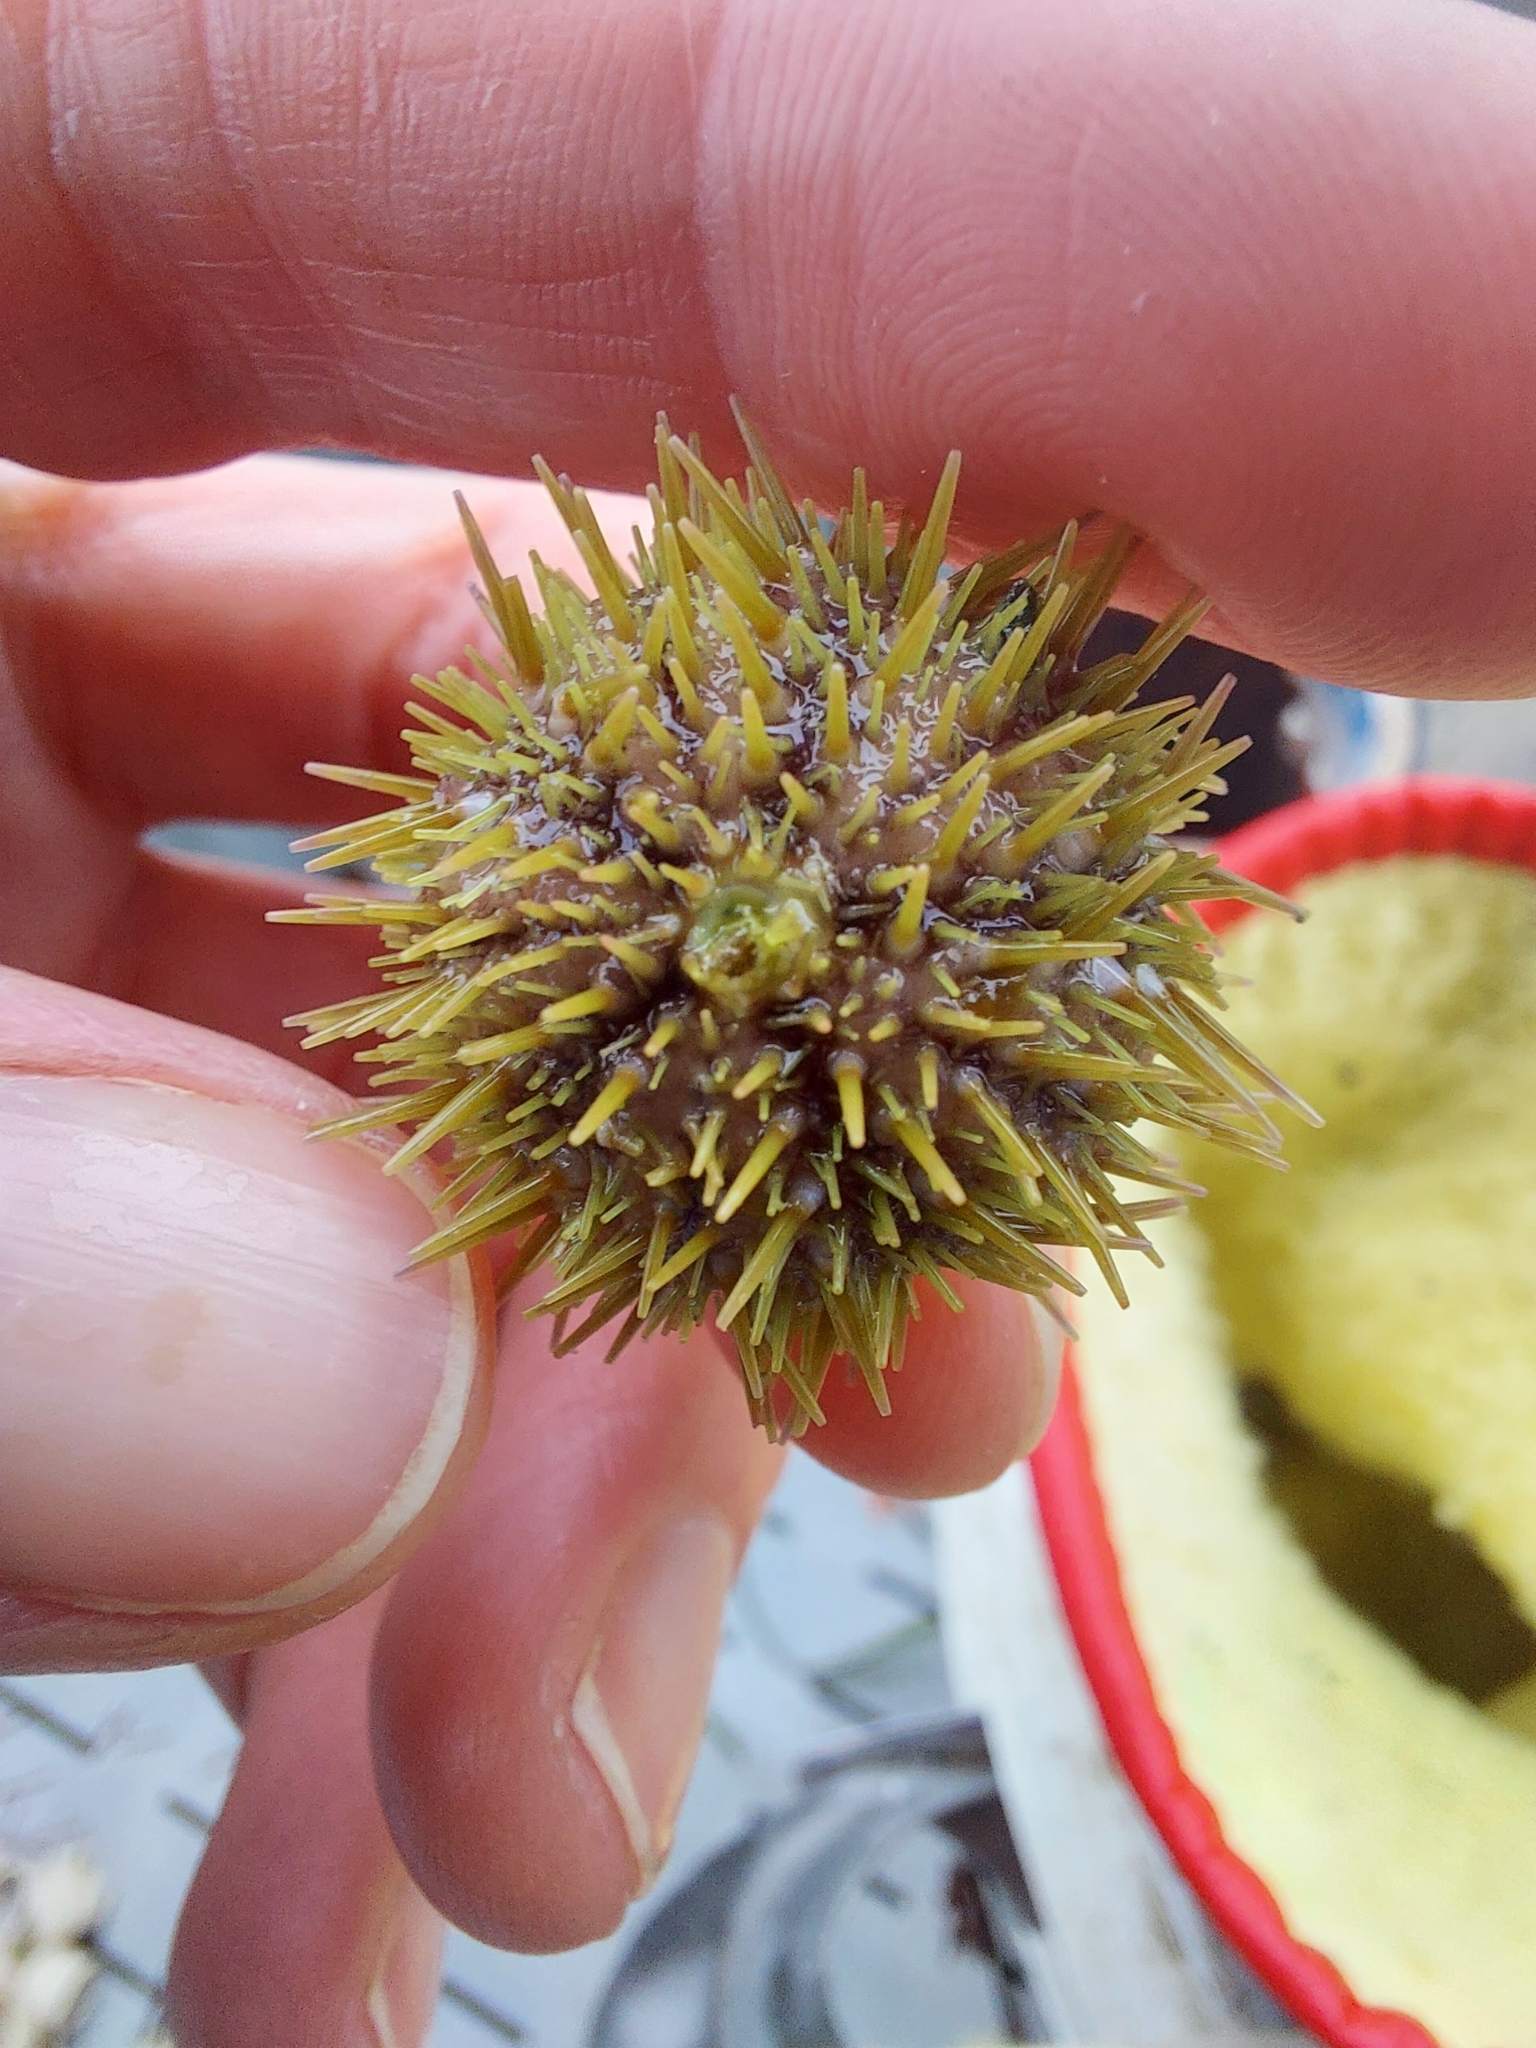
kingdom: Animalia
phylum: Echinodermata
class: Echinoidea
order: Camarodonta
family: Strongylocentrotidae
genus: Strongylocentrotus
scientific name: Strongylocentrotus droebachiensis
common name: Northern sea urchin
